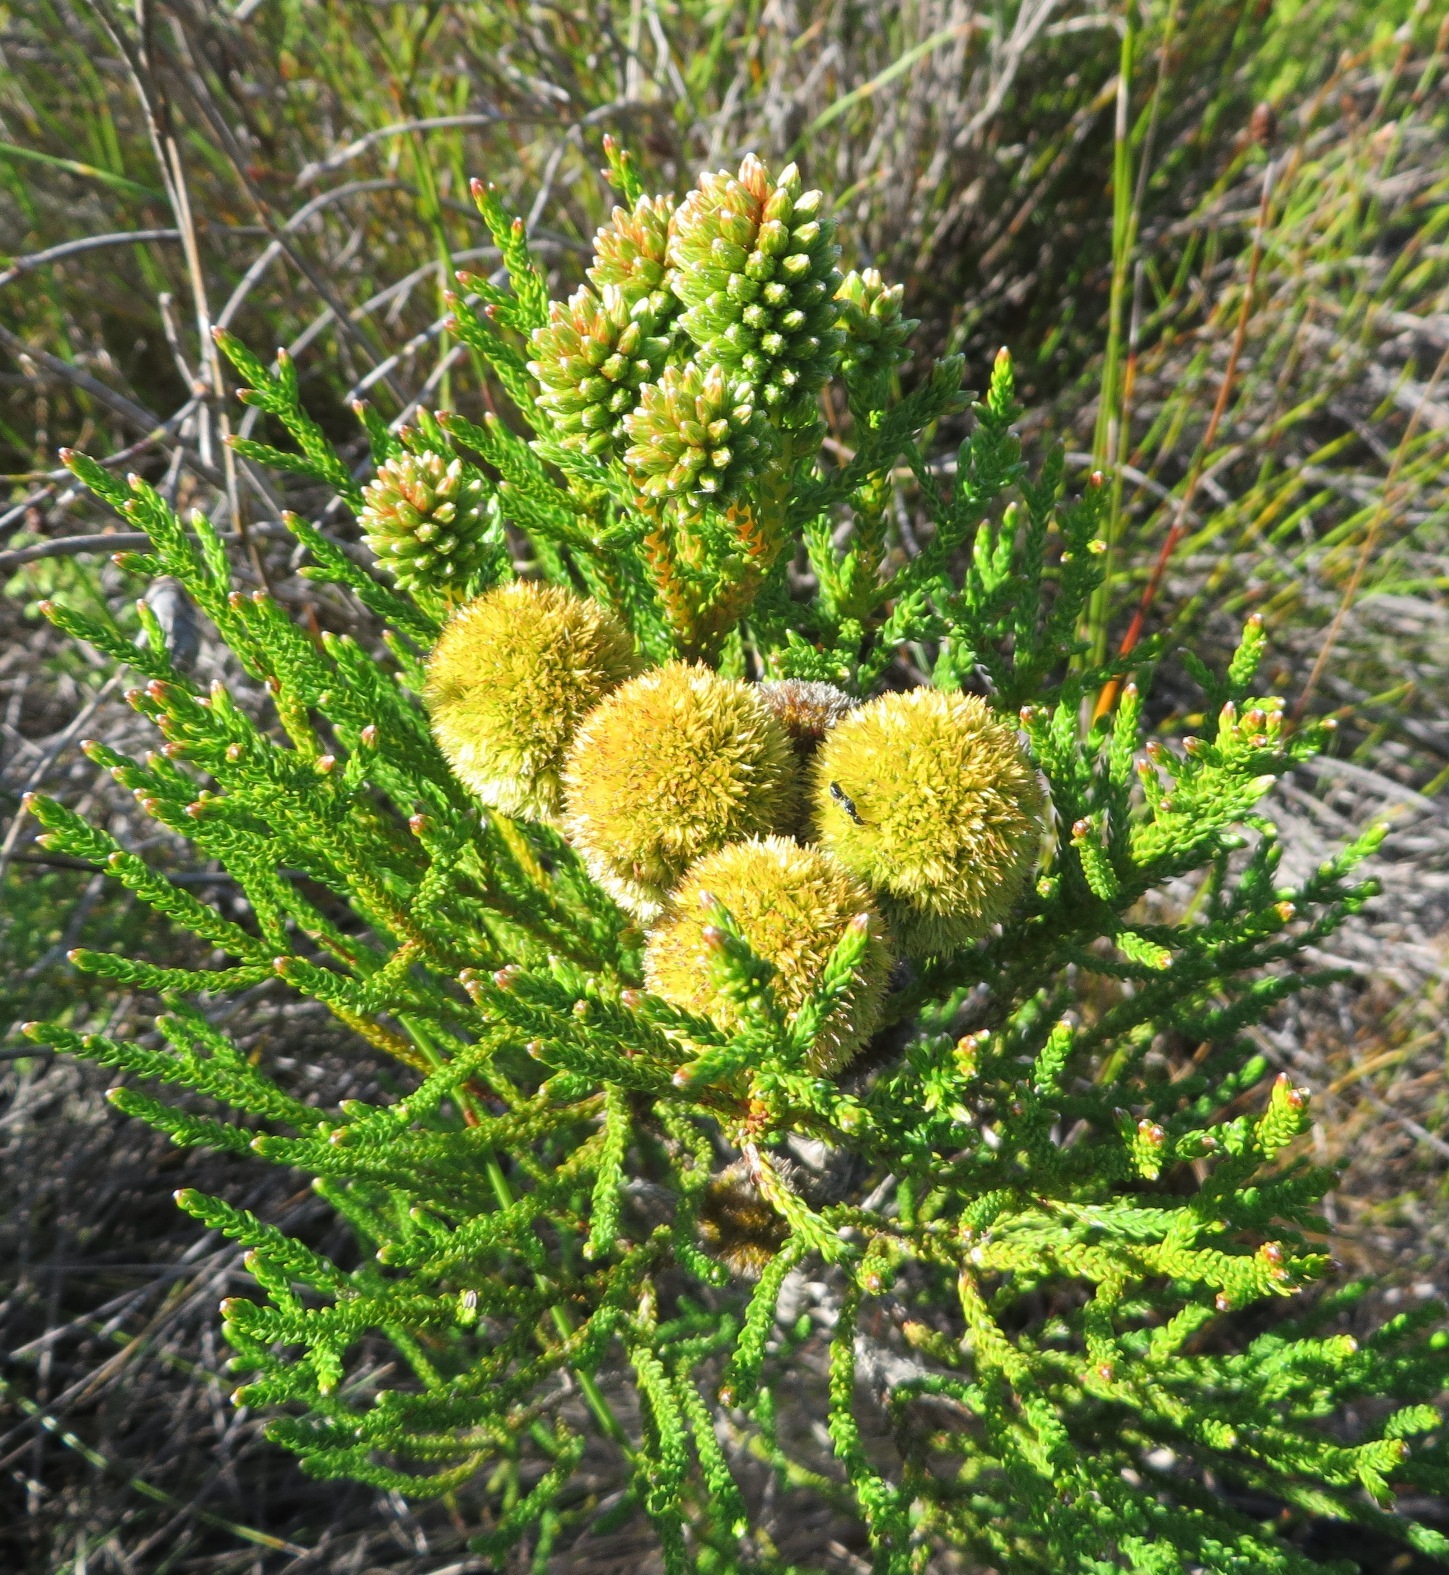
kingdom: Plantae
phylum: Tracheophyta
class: Magnoliopsida
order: Bruniales
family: Bruniaceae
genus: Brunia
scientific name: Brunia fragarioides
